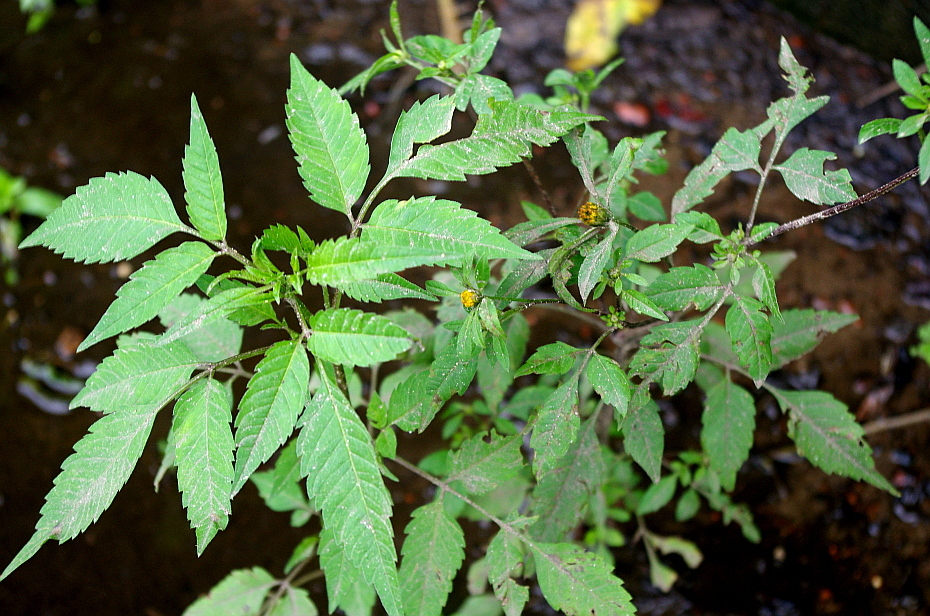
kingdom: Plantae
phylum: Tracheophyta
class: Magnoliopsida
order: Asterales
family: Asteraceae
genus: Bidens
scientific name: Bidens frondosa
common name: Beggarticks
